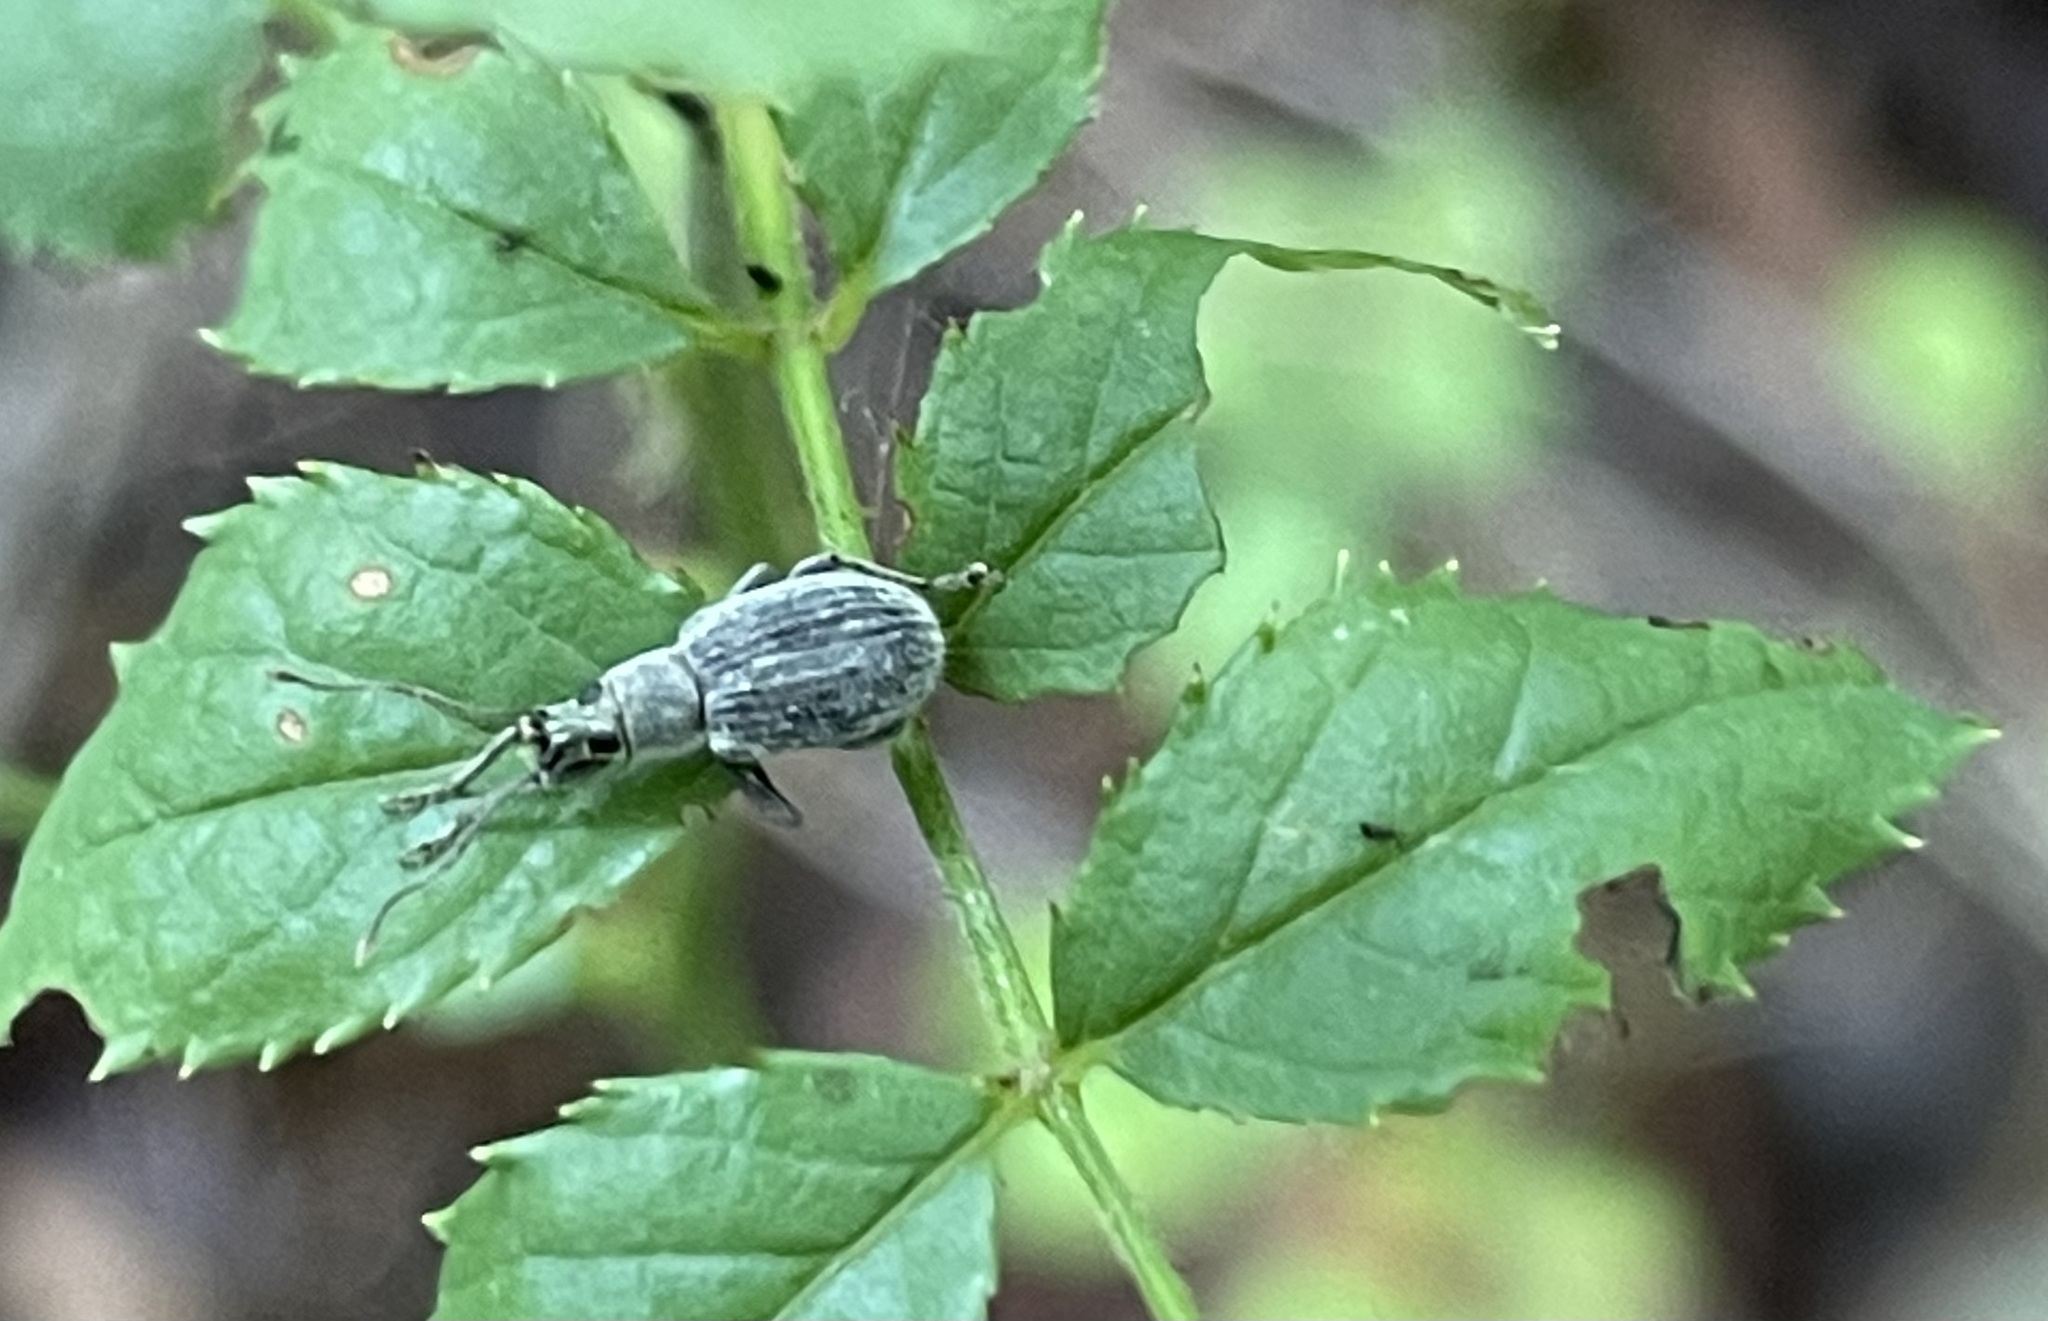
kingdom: Animalia
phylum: Arthropoda
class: Insecta
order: Coleoptera
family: Curculionidae
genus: Cyrtepistomus
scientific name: Cyrtepistomus castaneus
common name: Weevil
